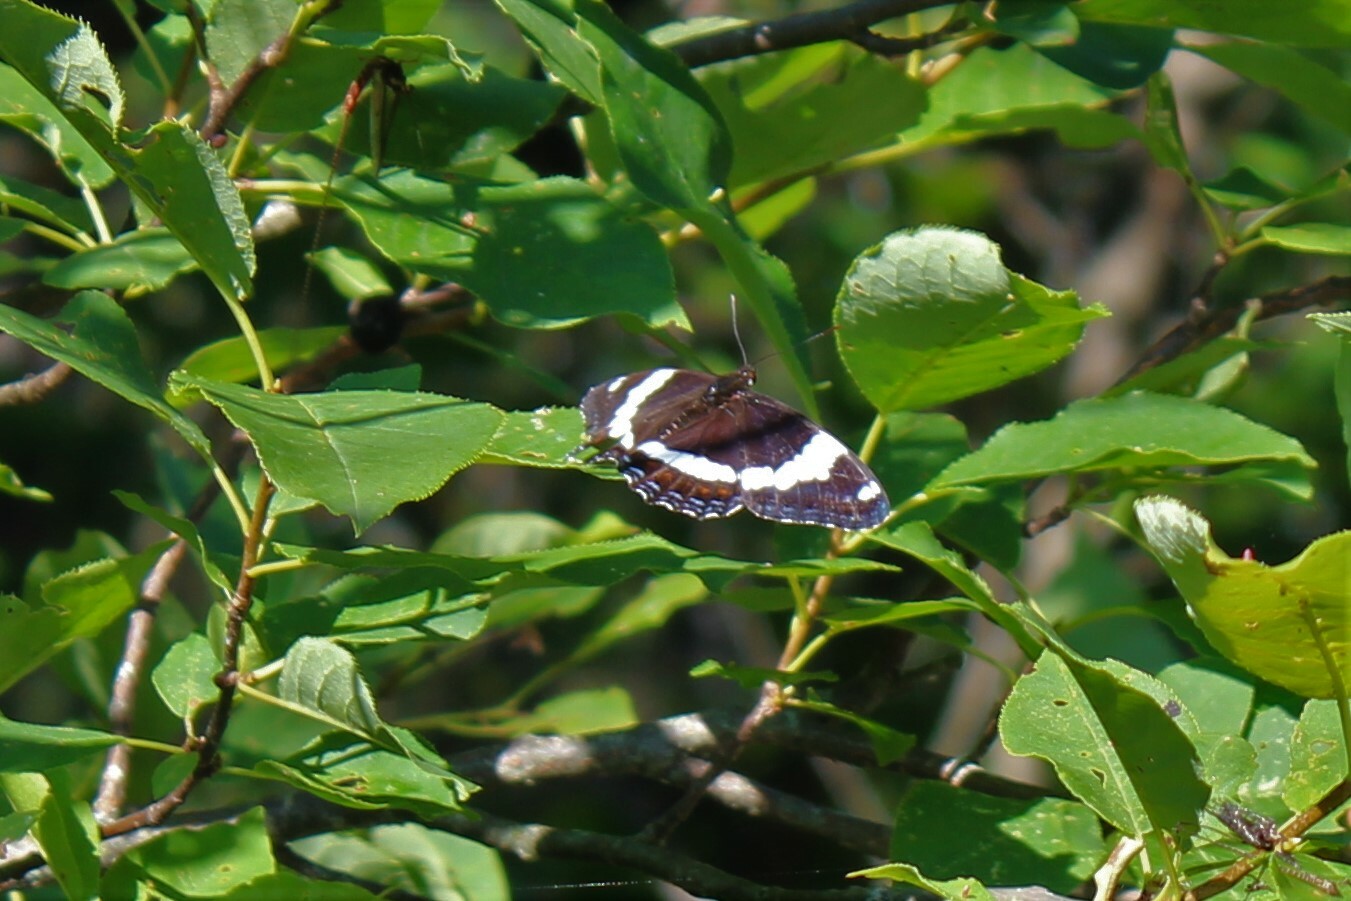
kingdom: Animalia
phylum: Arthropoda
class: Insecta
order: Lepidoptera
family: Nymphalidae
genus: Limenitis
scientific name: Limenitis arthemis
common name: Red-spotted admiral
